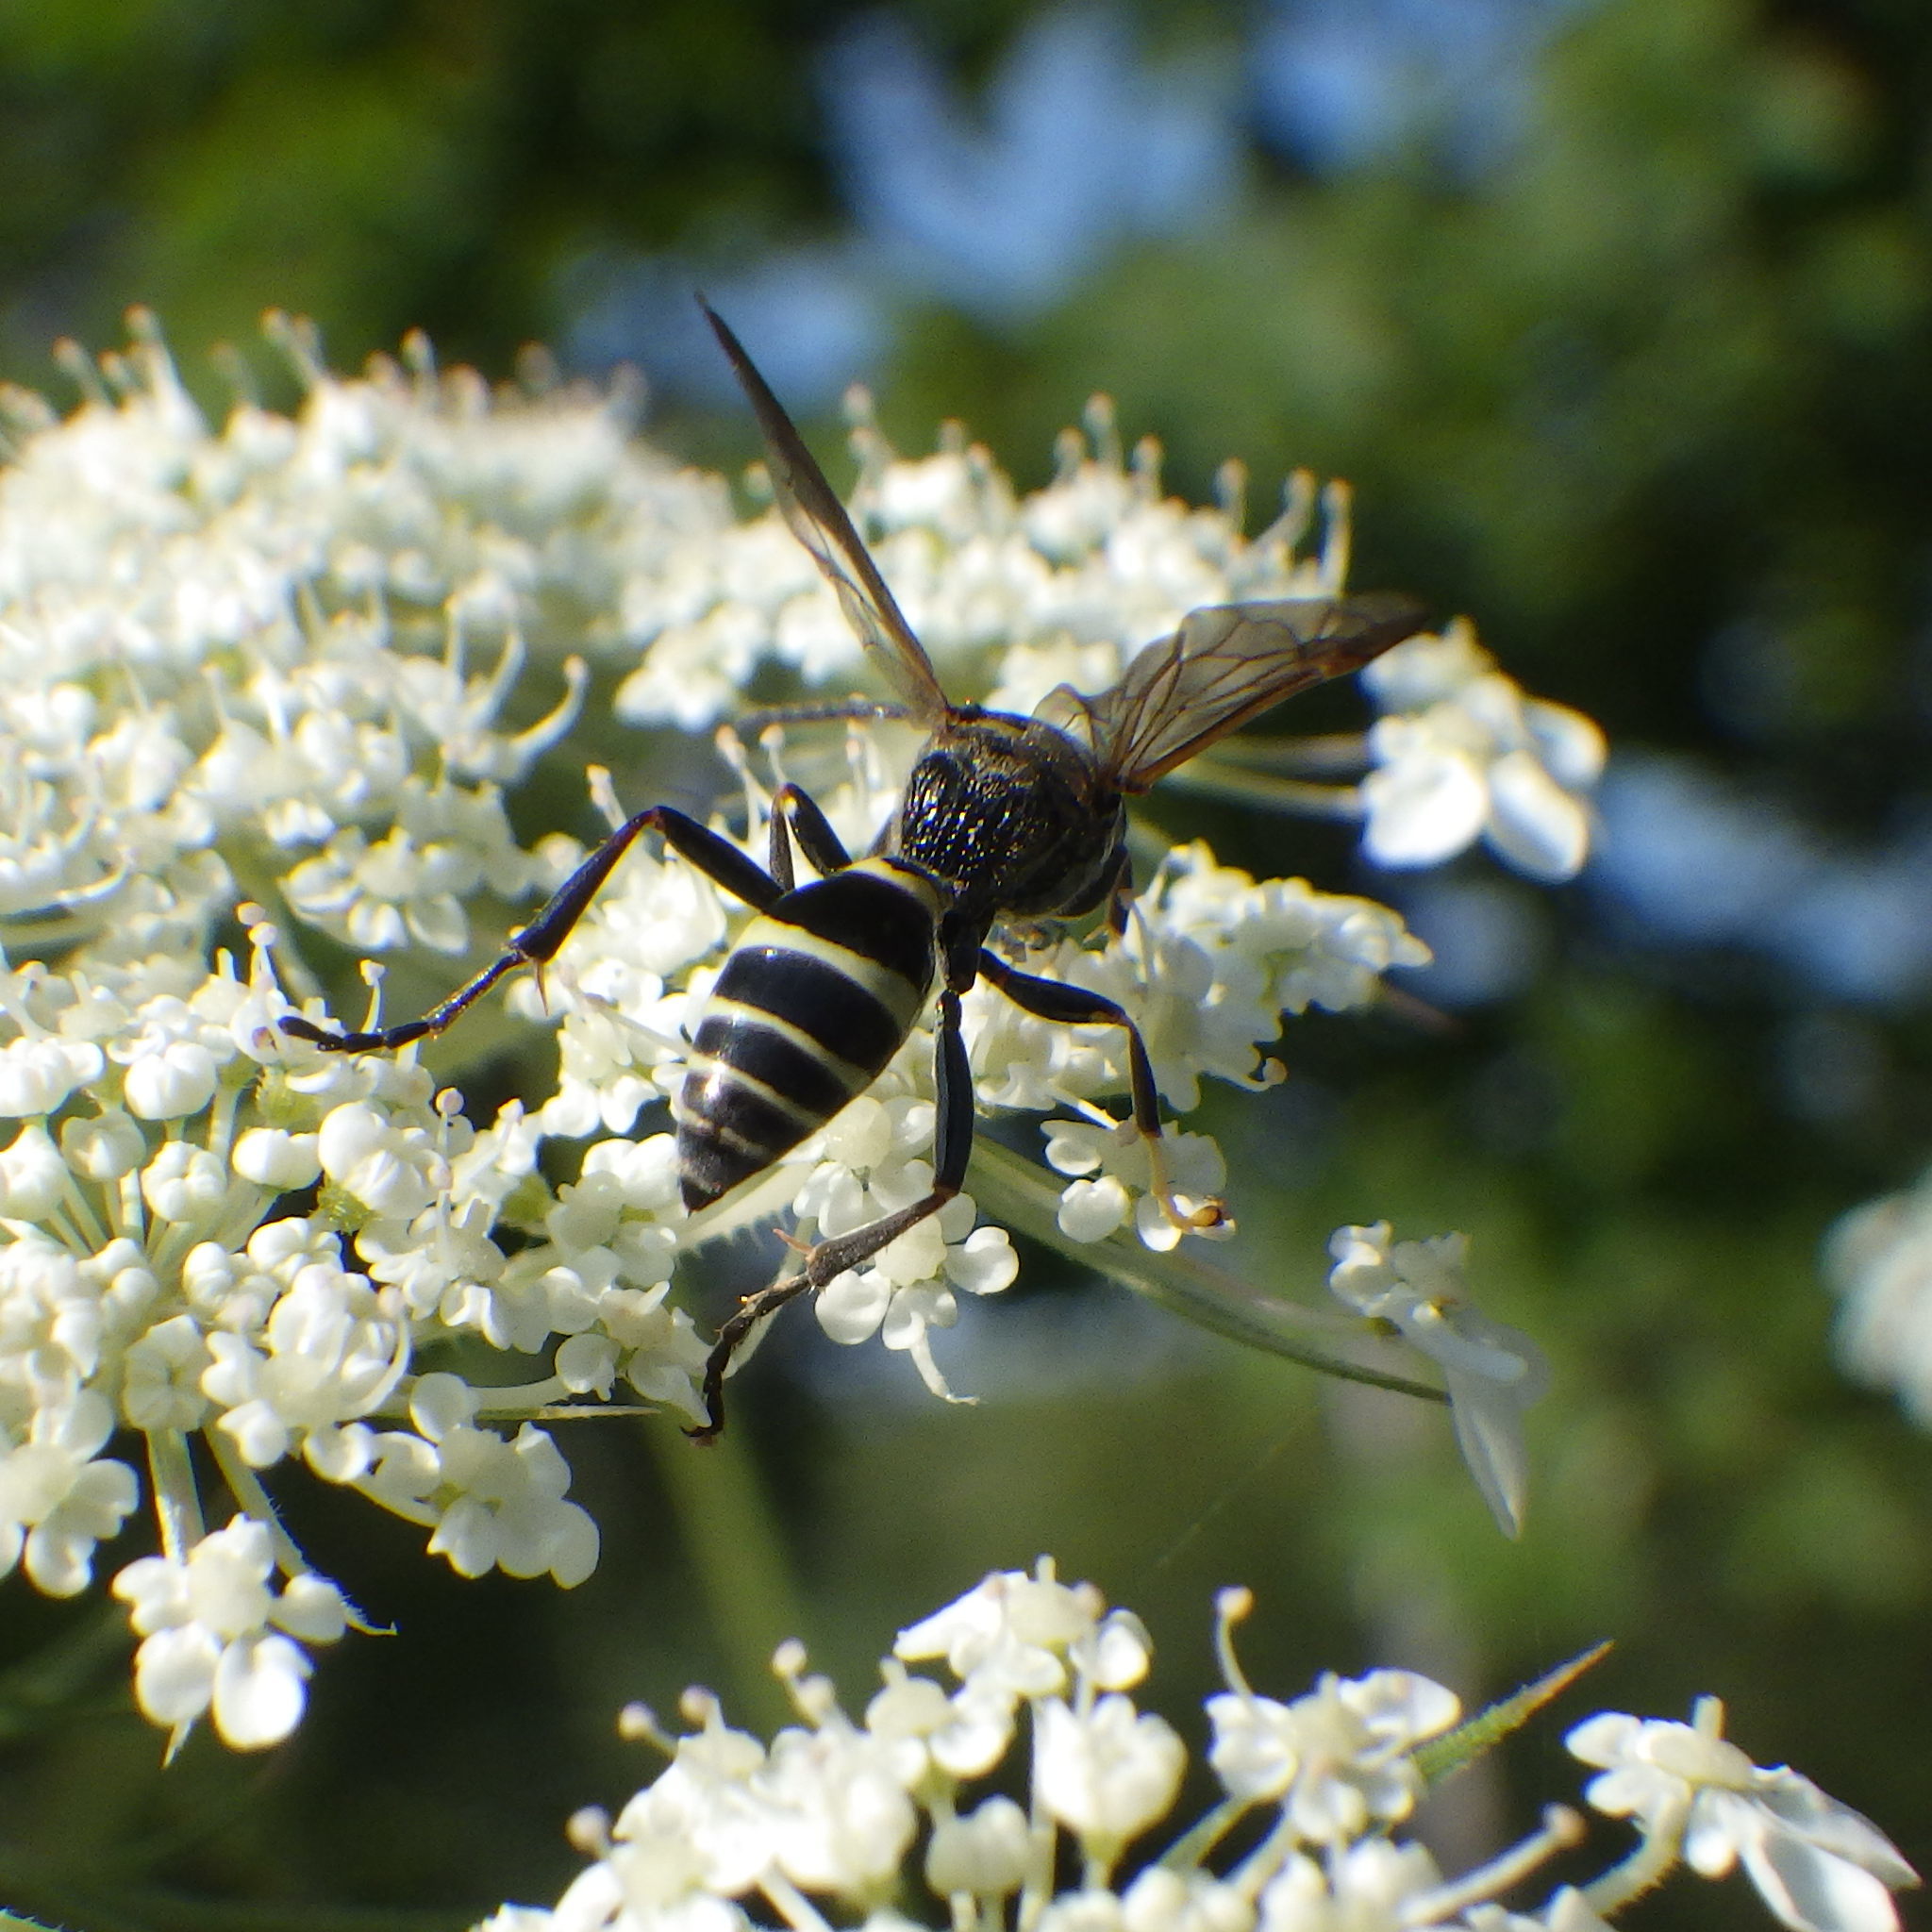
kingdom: Animalia
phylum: Arthropoda
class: Insecta
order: Hymenoptera
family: Crabronidae
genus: Gorytes
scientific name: Gorytes atricornis
